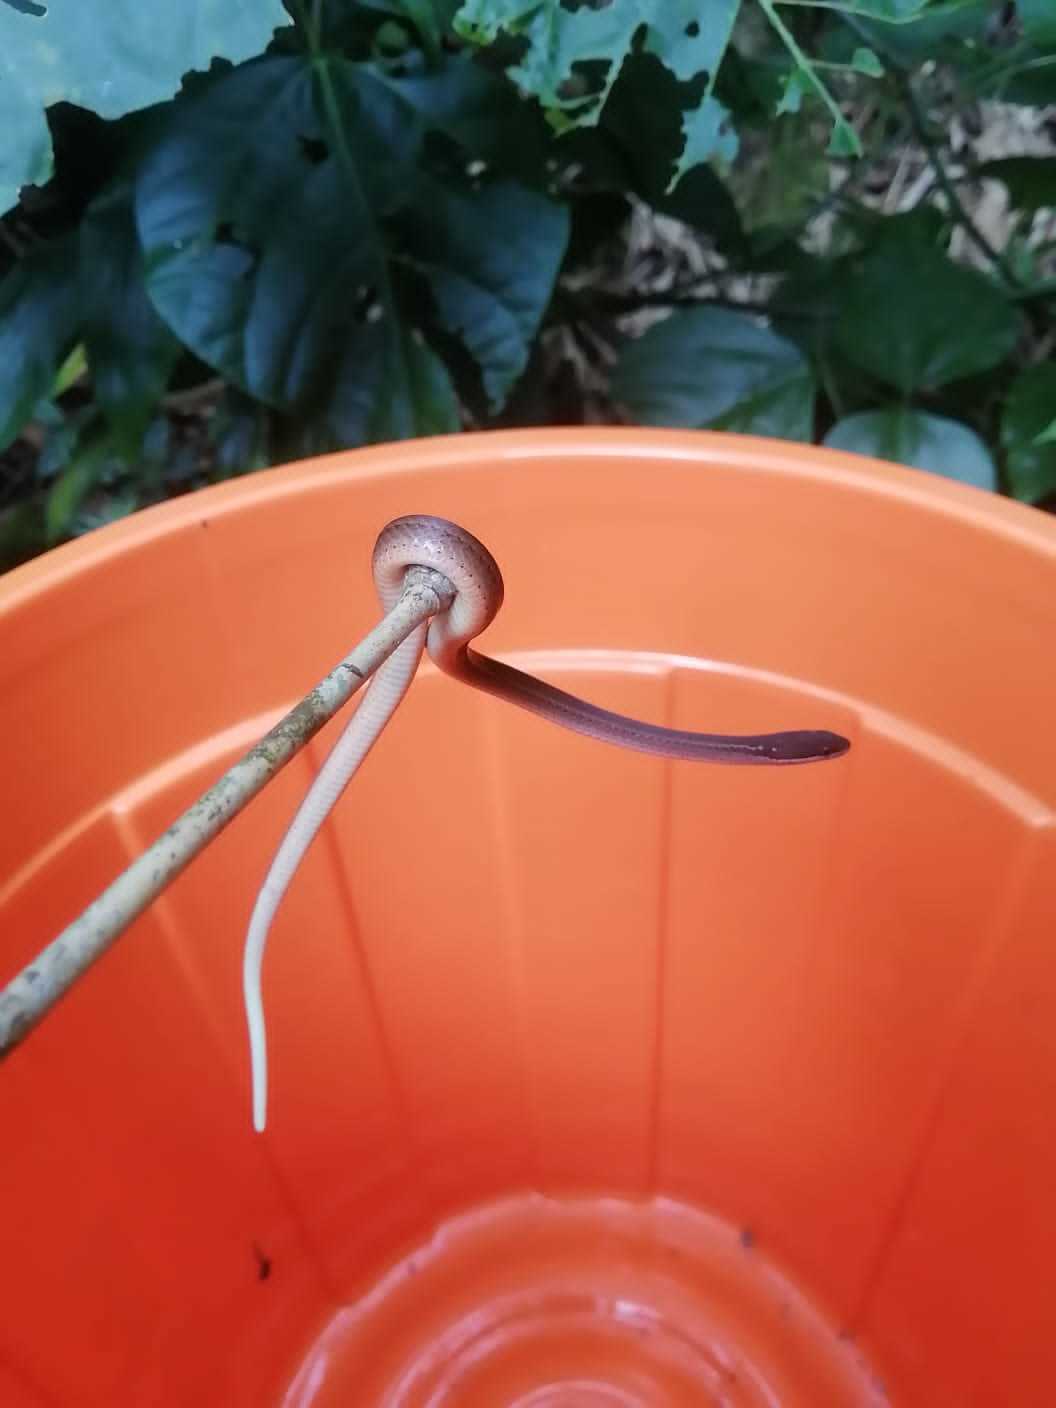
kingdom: Animalia
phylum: Chordata
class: Squamata
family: Colubridae
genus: Coniophanes
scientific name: Coniophanes fissidens
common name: Yellowbelly snake
